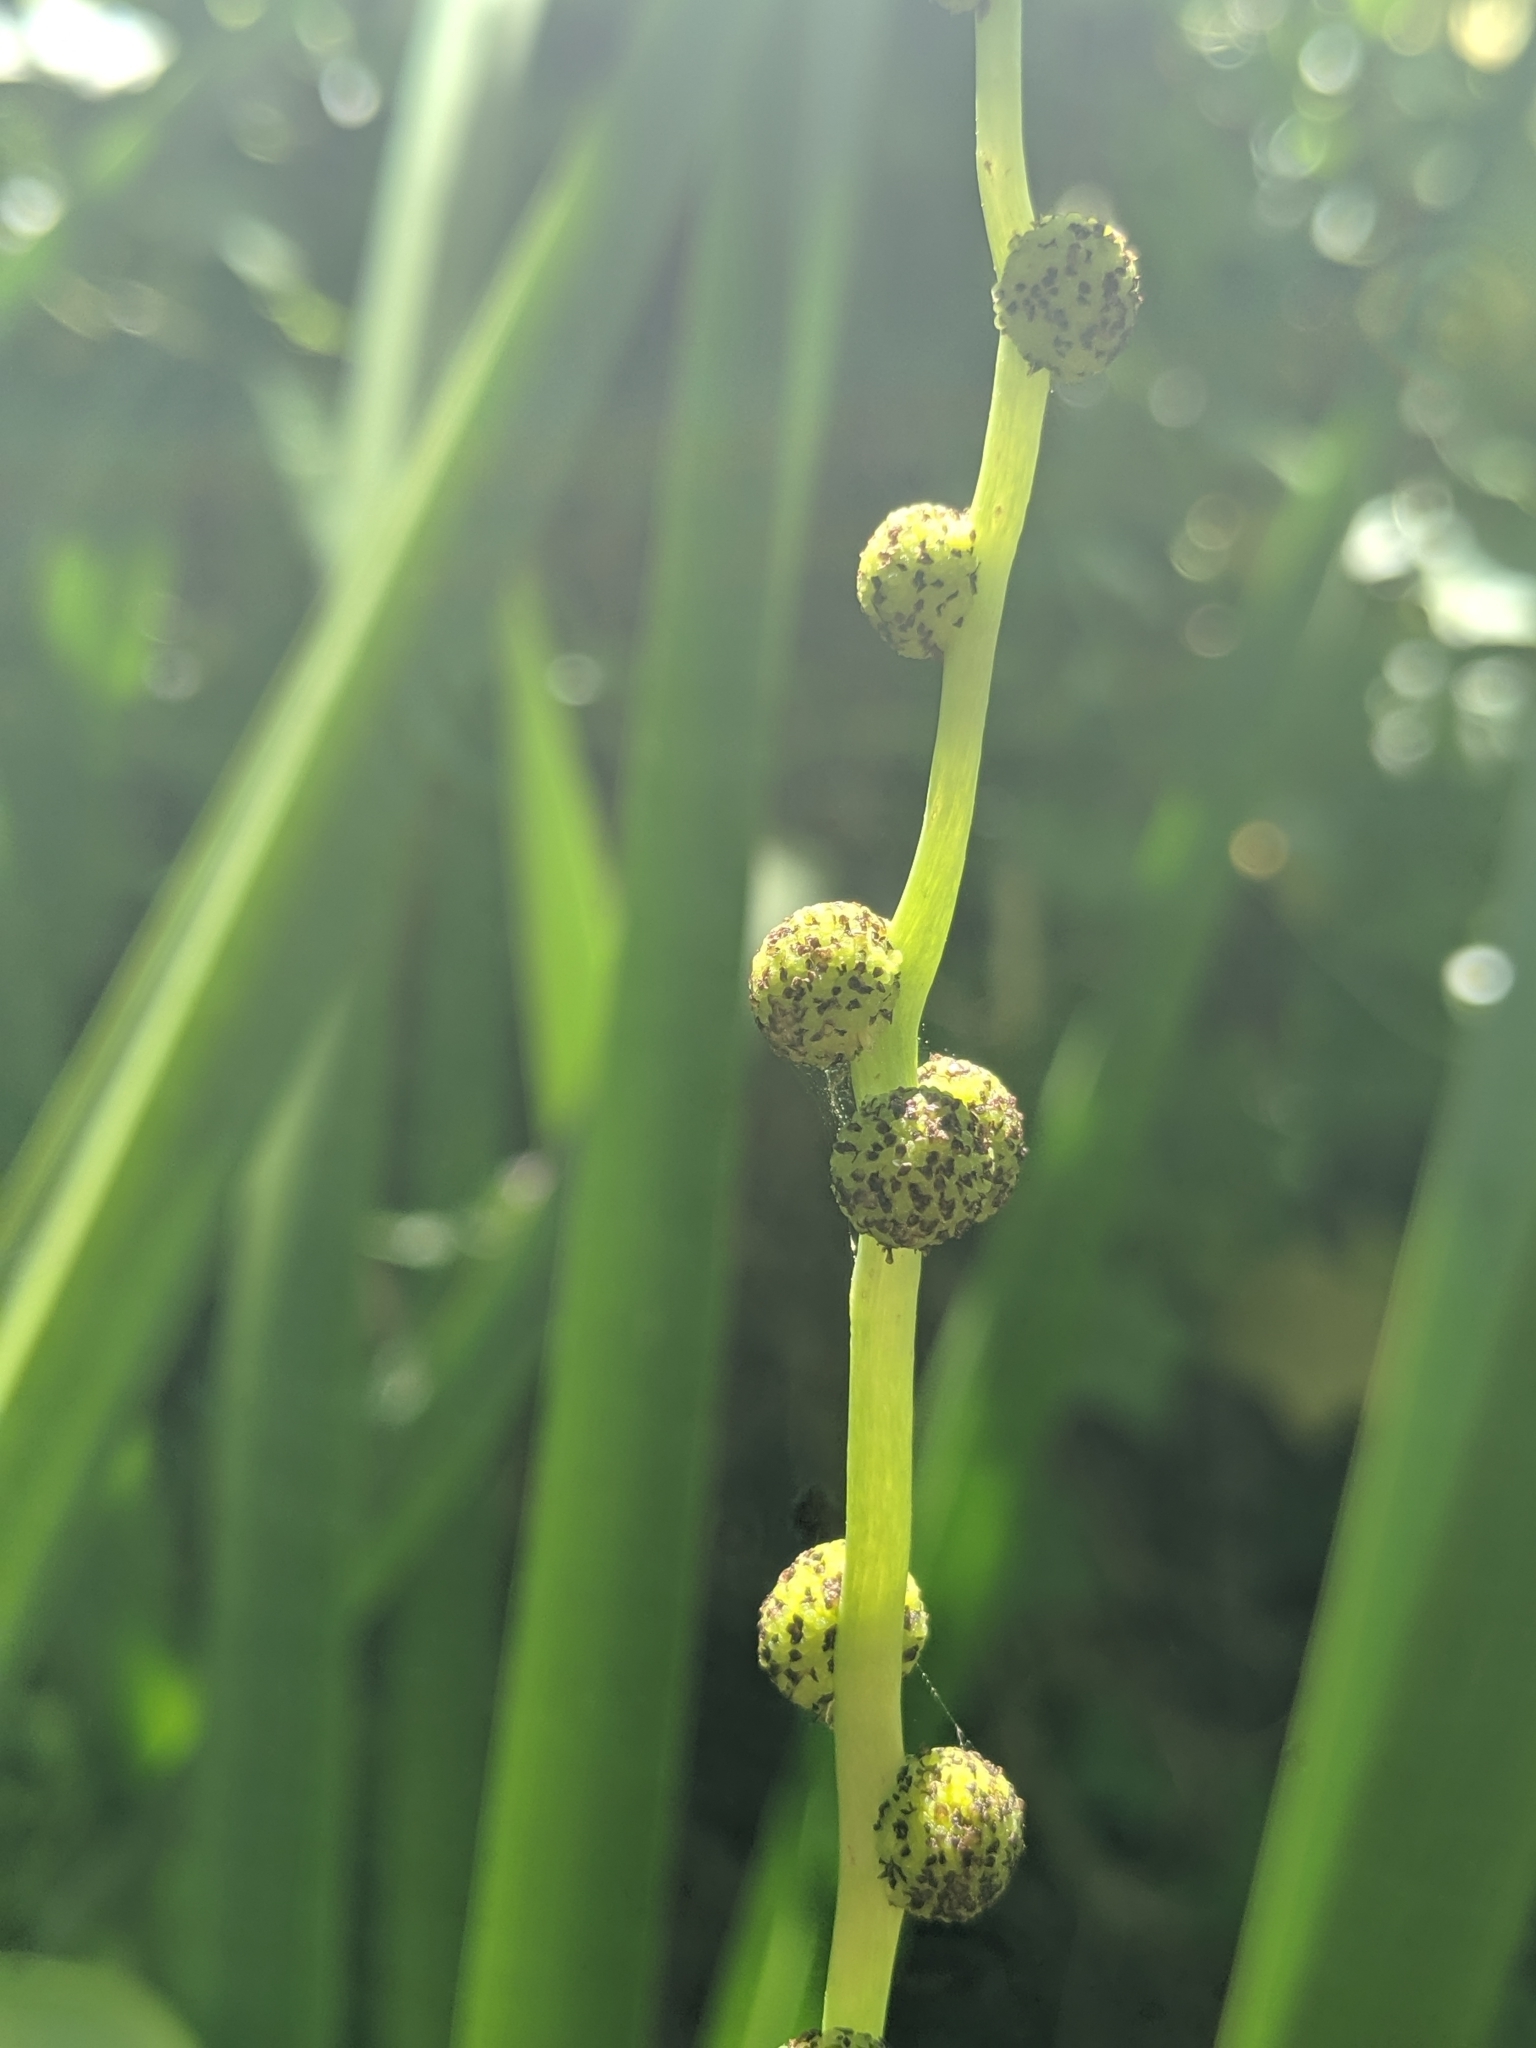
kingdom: Plantae
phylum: Tracheophyta
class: Liliopsida
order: Poales
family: Typhaceae
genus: Sparganium
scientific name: Sparganium eurycarpum
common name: Broad-fruited burreed
